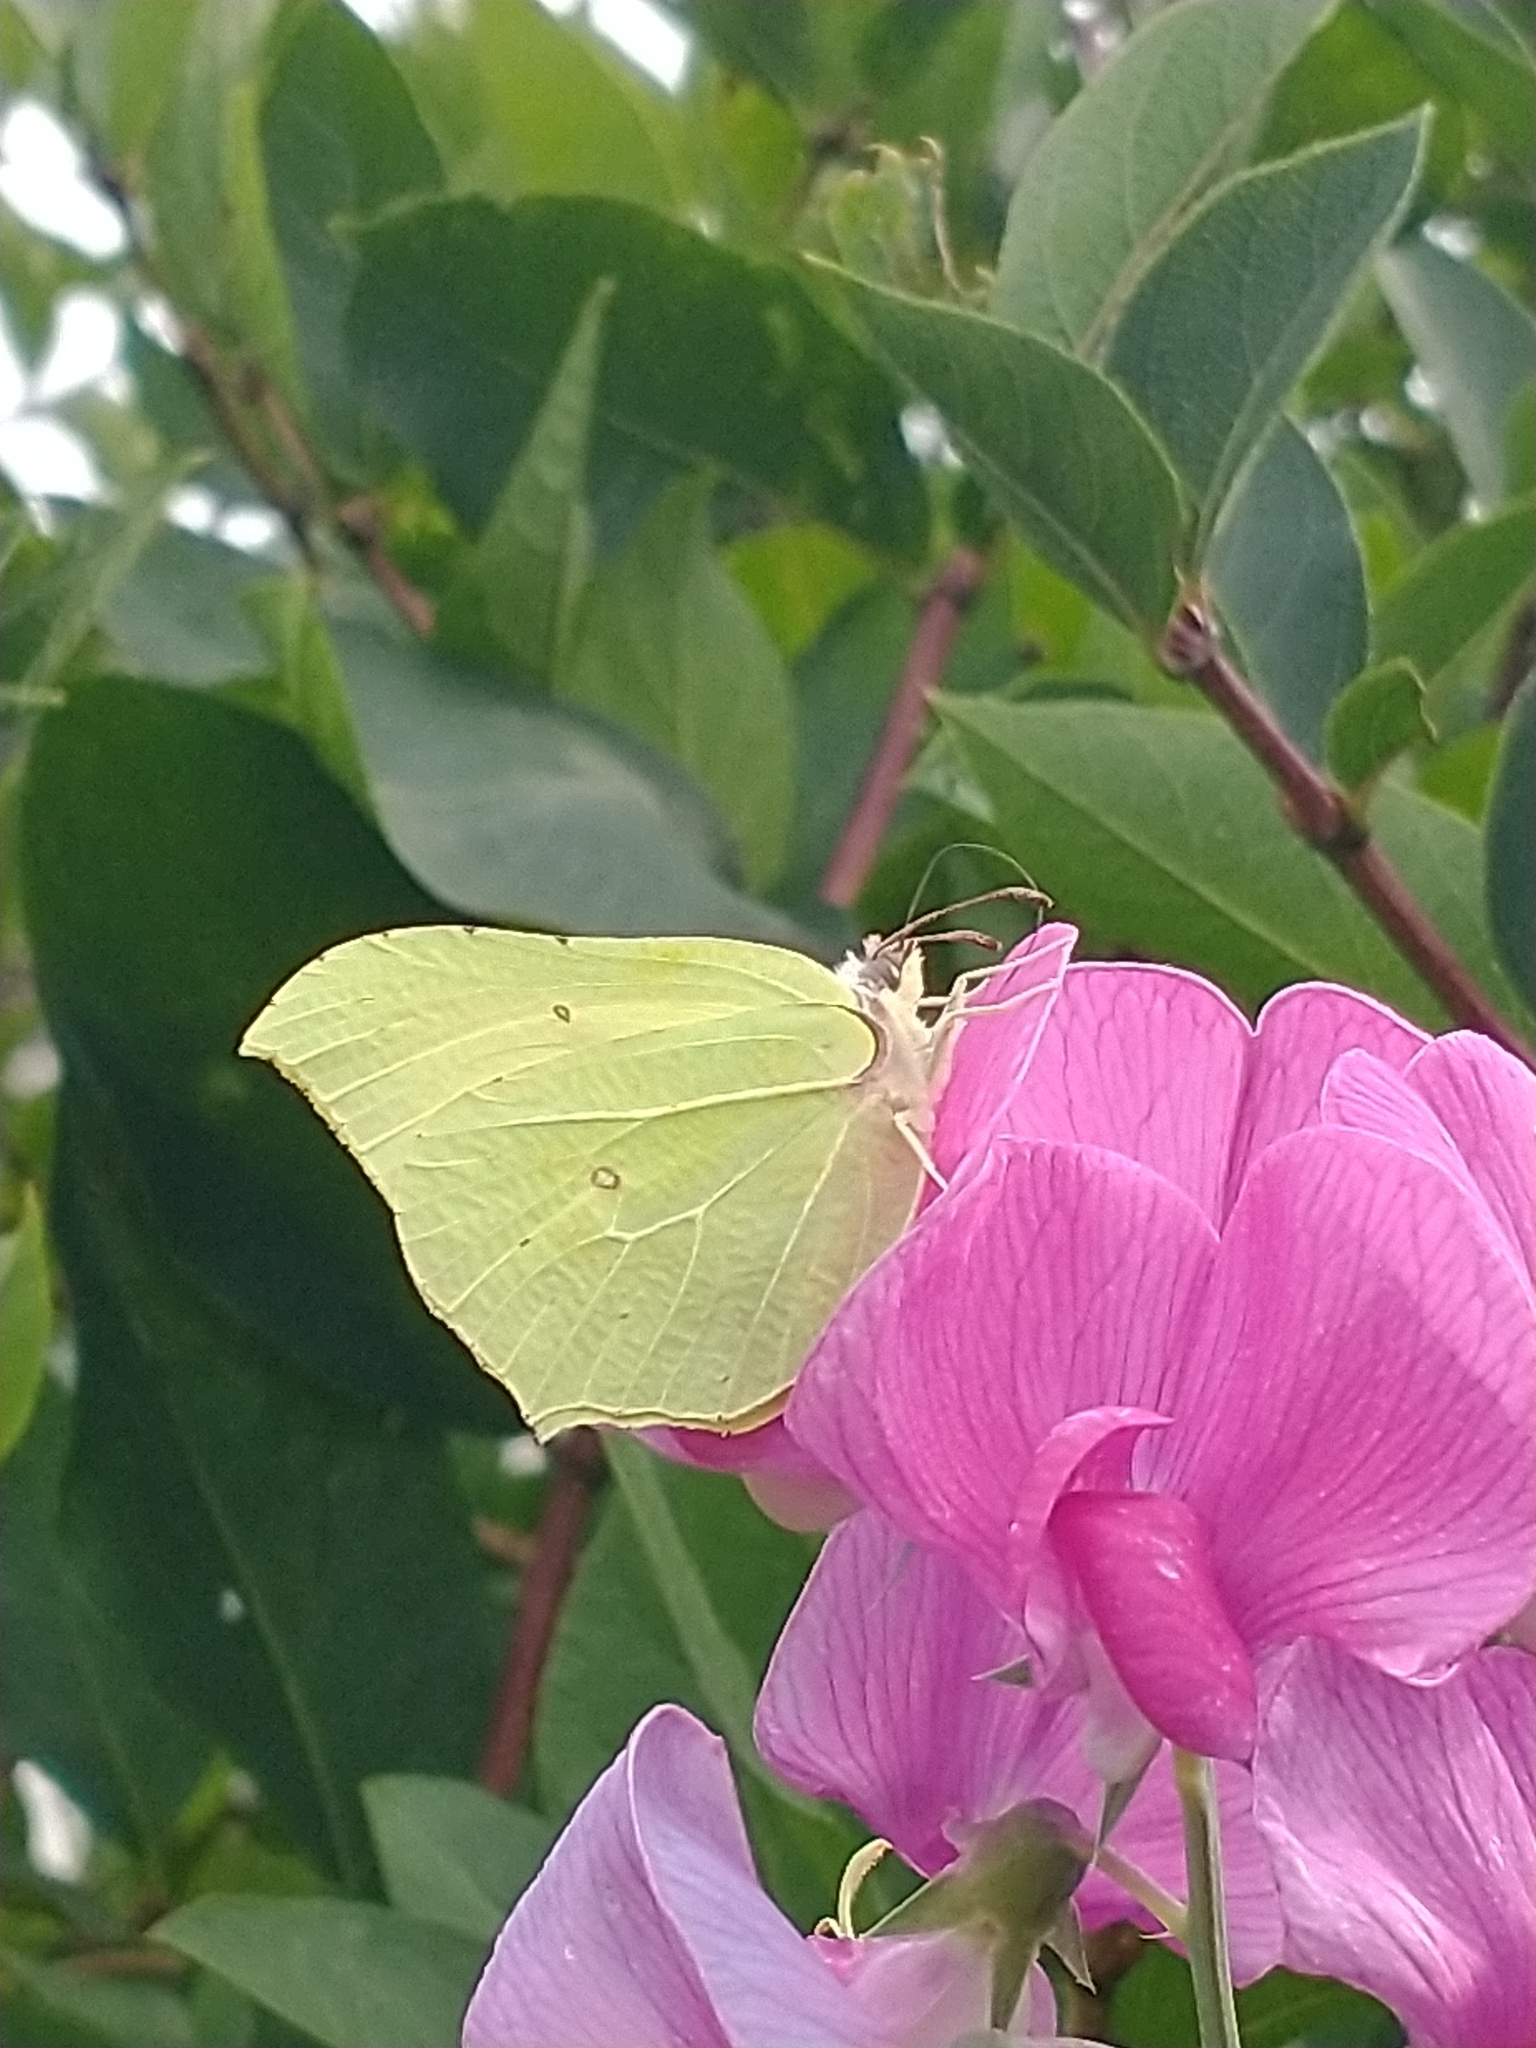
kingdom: Animalia
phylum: Arthropoda
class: Insecta
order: Lepidoptera
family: Pieridae
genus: Gonepteryx
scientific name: Gonepteryx rhamni
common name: Brimstone
